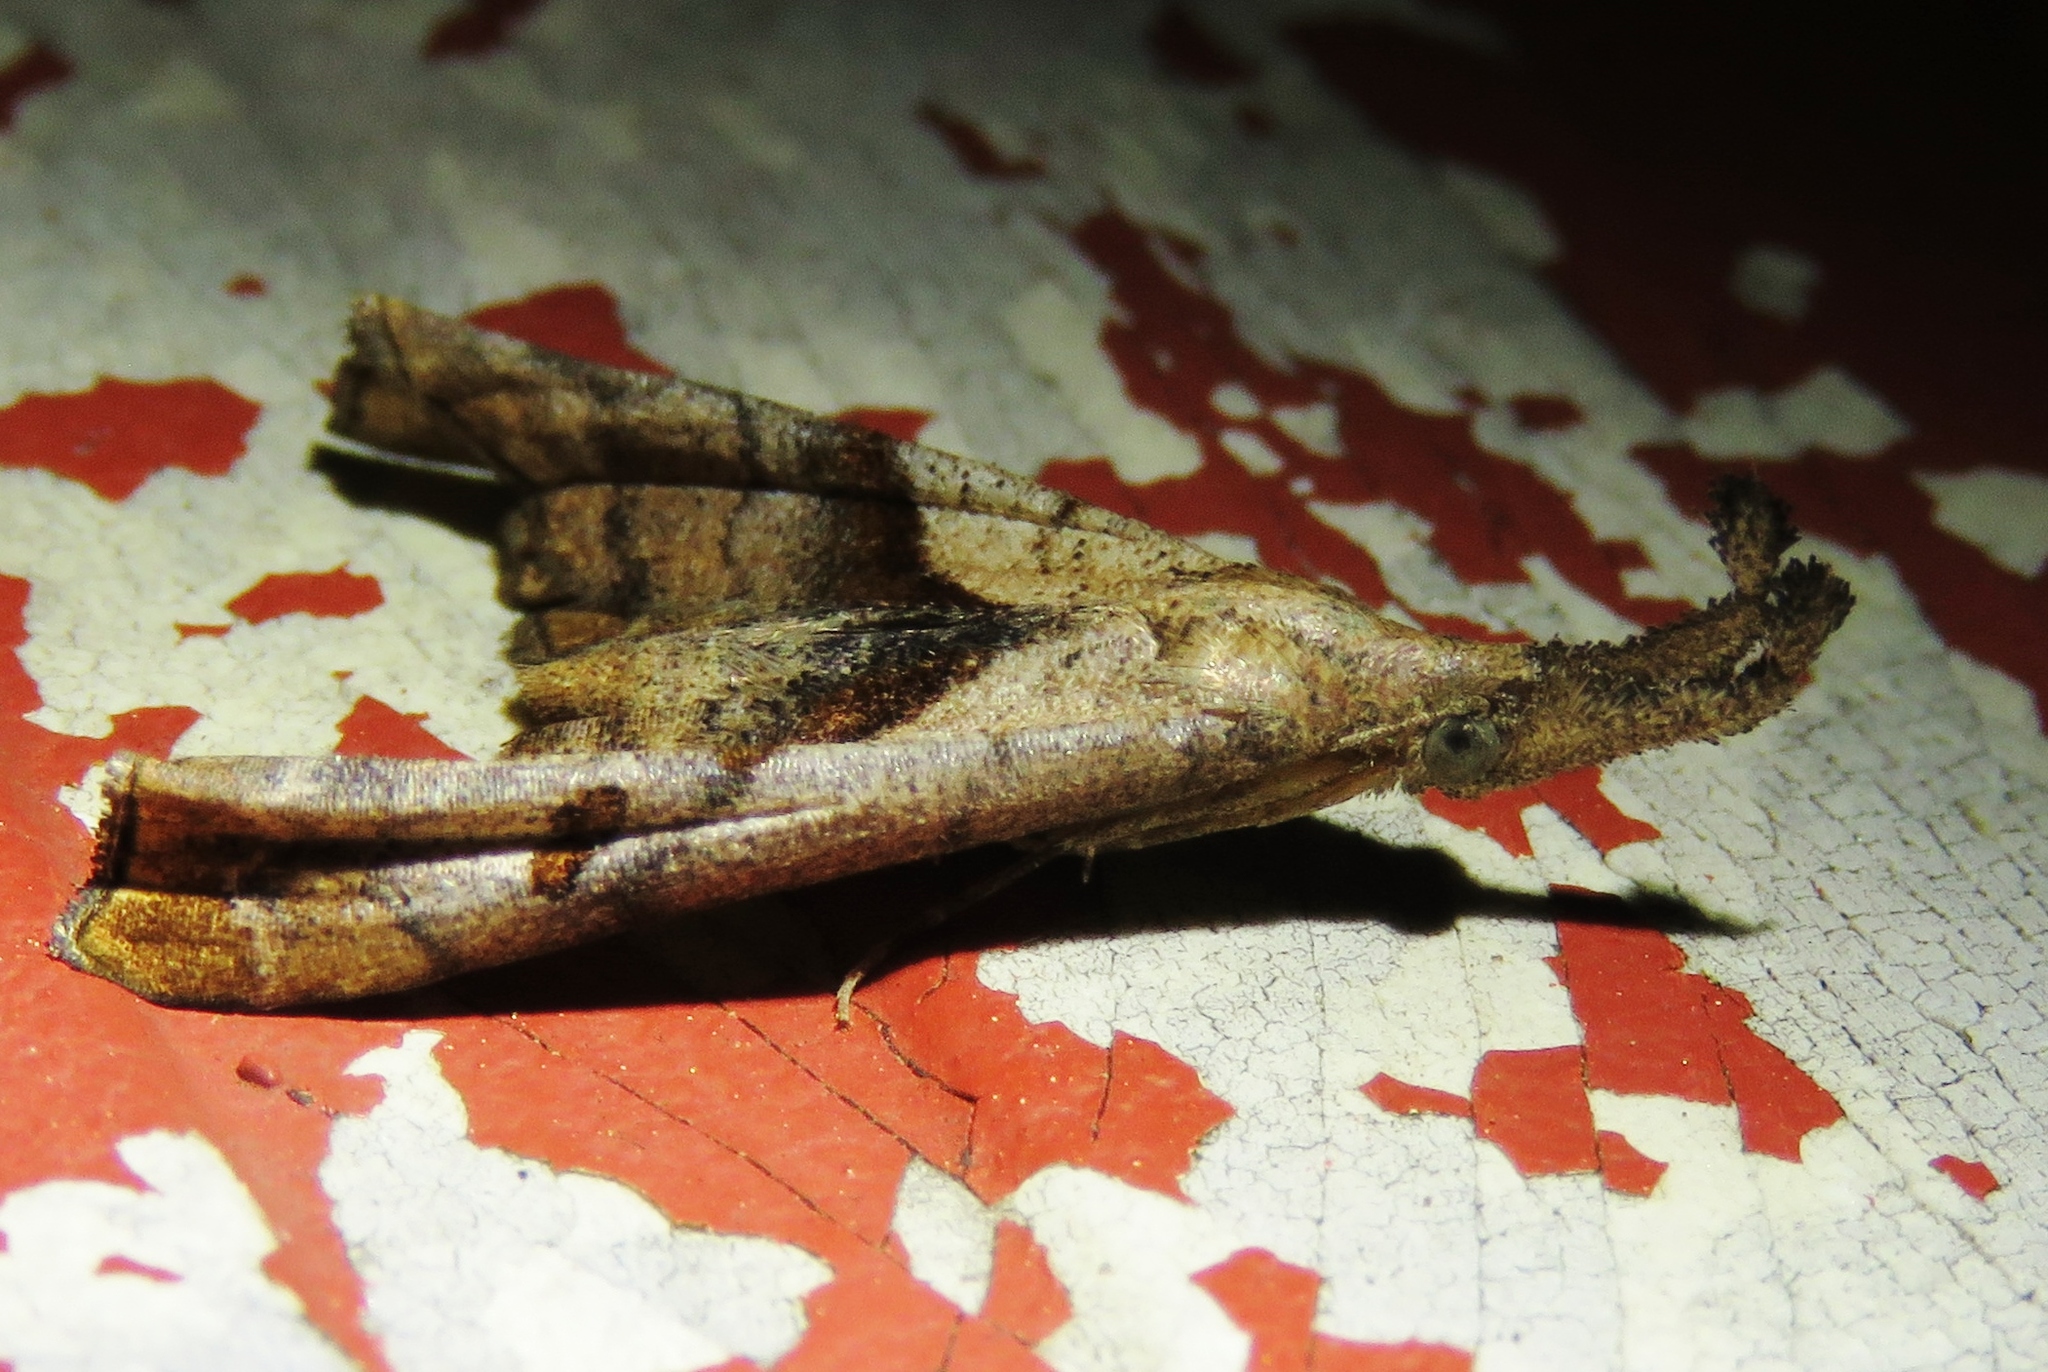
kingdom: Animalia
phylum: Arthropoda
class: Insecta
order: Lepidoptera
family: Erebidae
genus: Palthis
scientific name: Palthis angulalis
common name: Dark-spotted palthis moth
